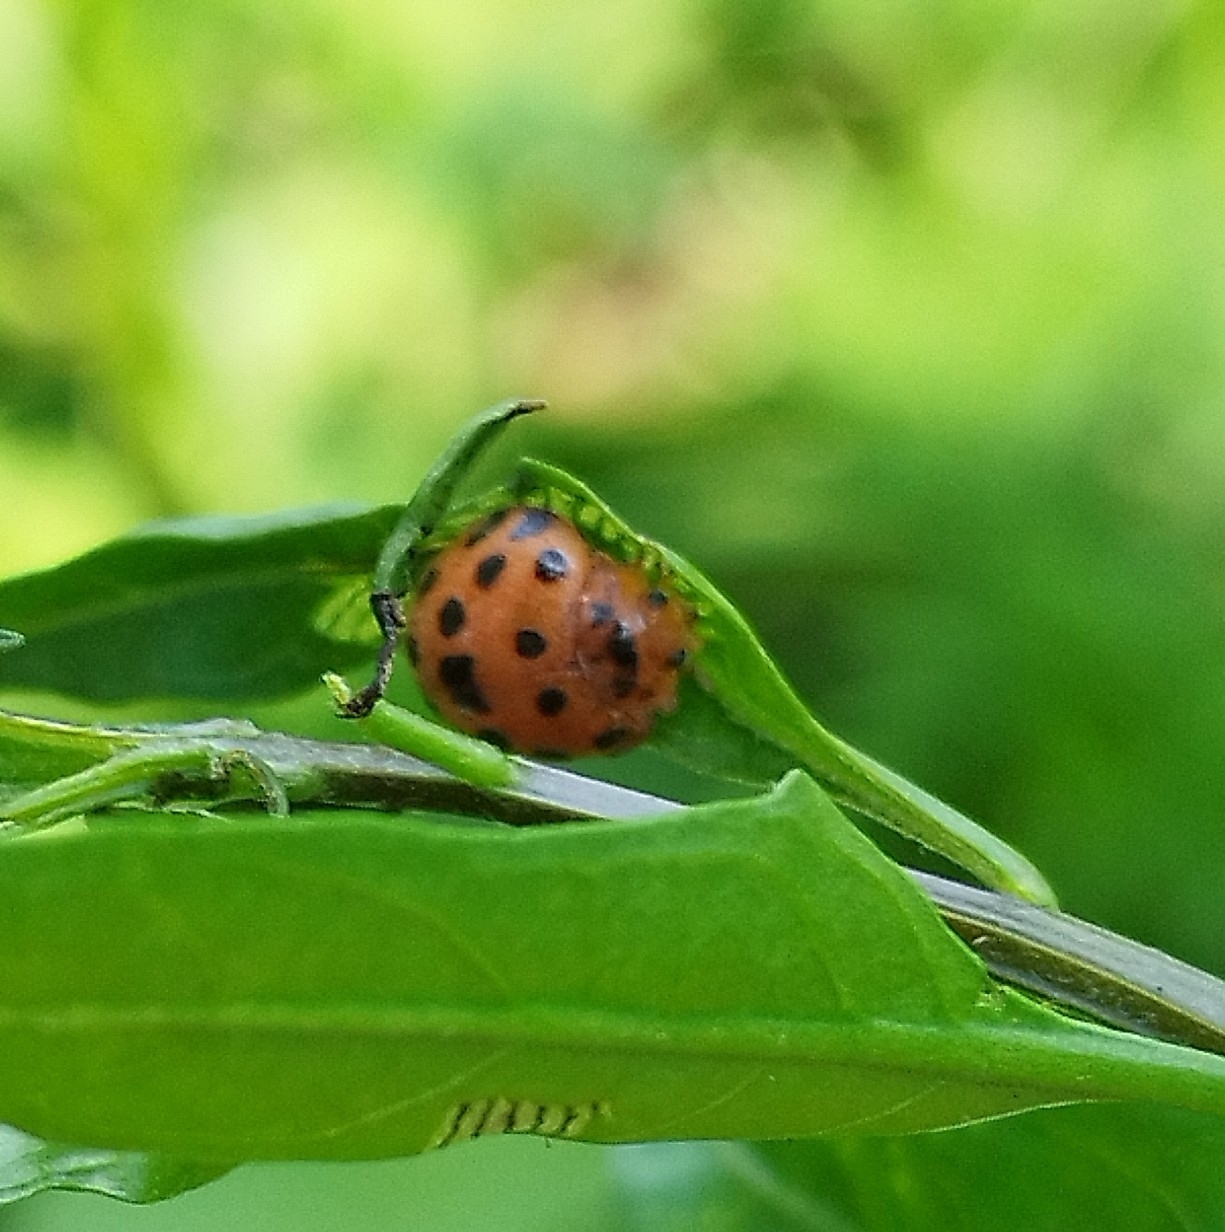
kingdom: Animalia
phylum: Arthropoda
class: Insecta
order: Coleoptera
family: Coccinellidae
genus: Henosepilachna
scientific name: Henosepilachna vigintioctopunctata
